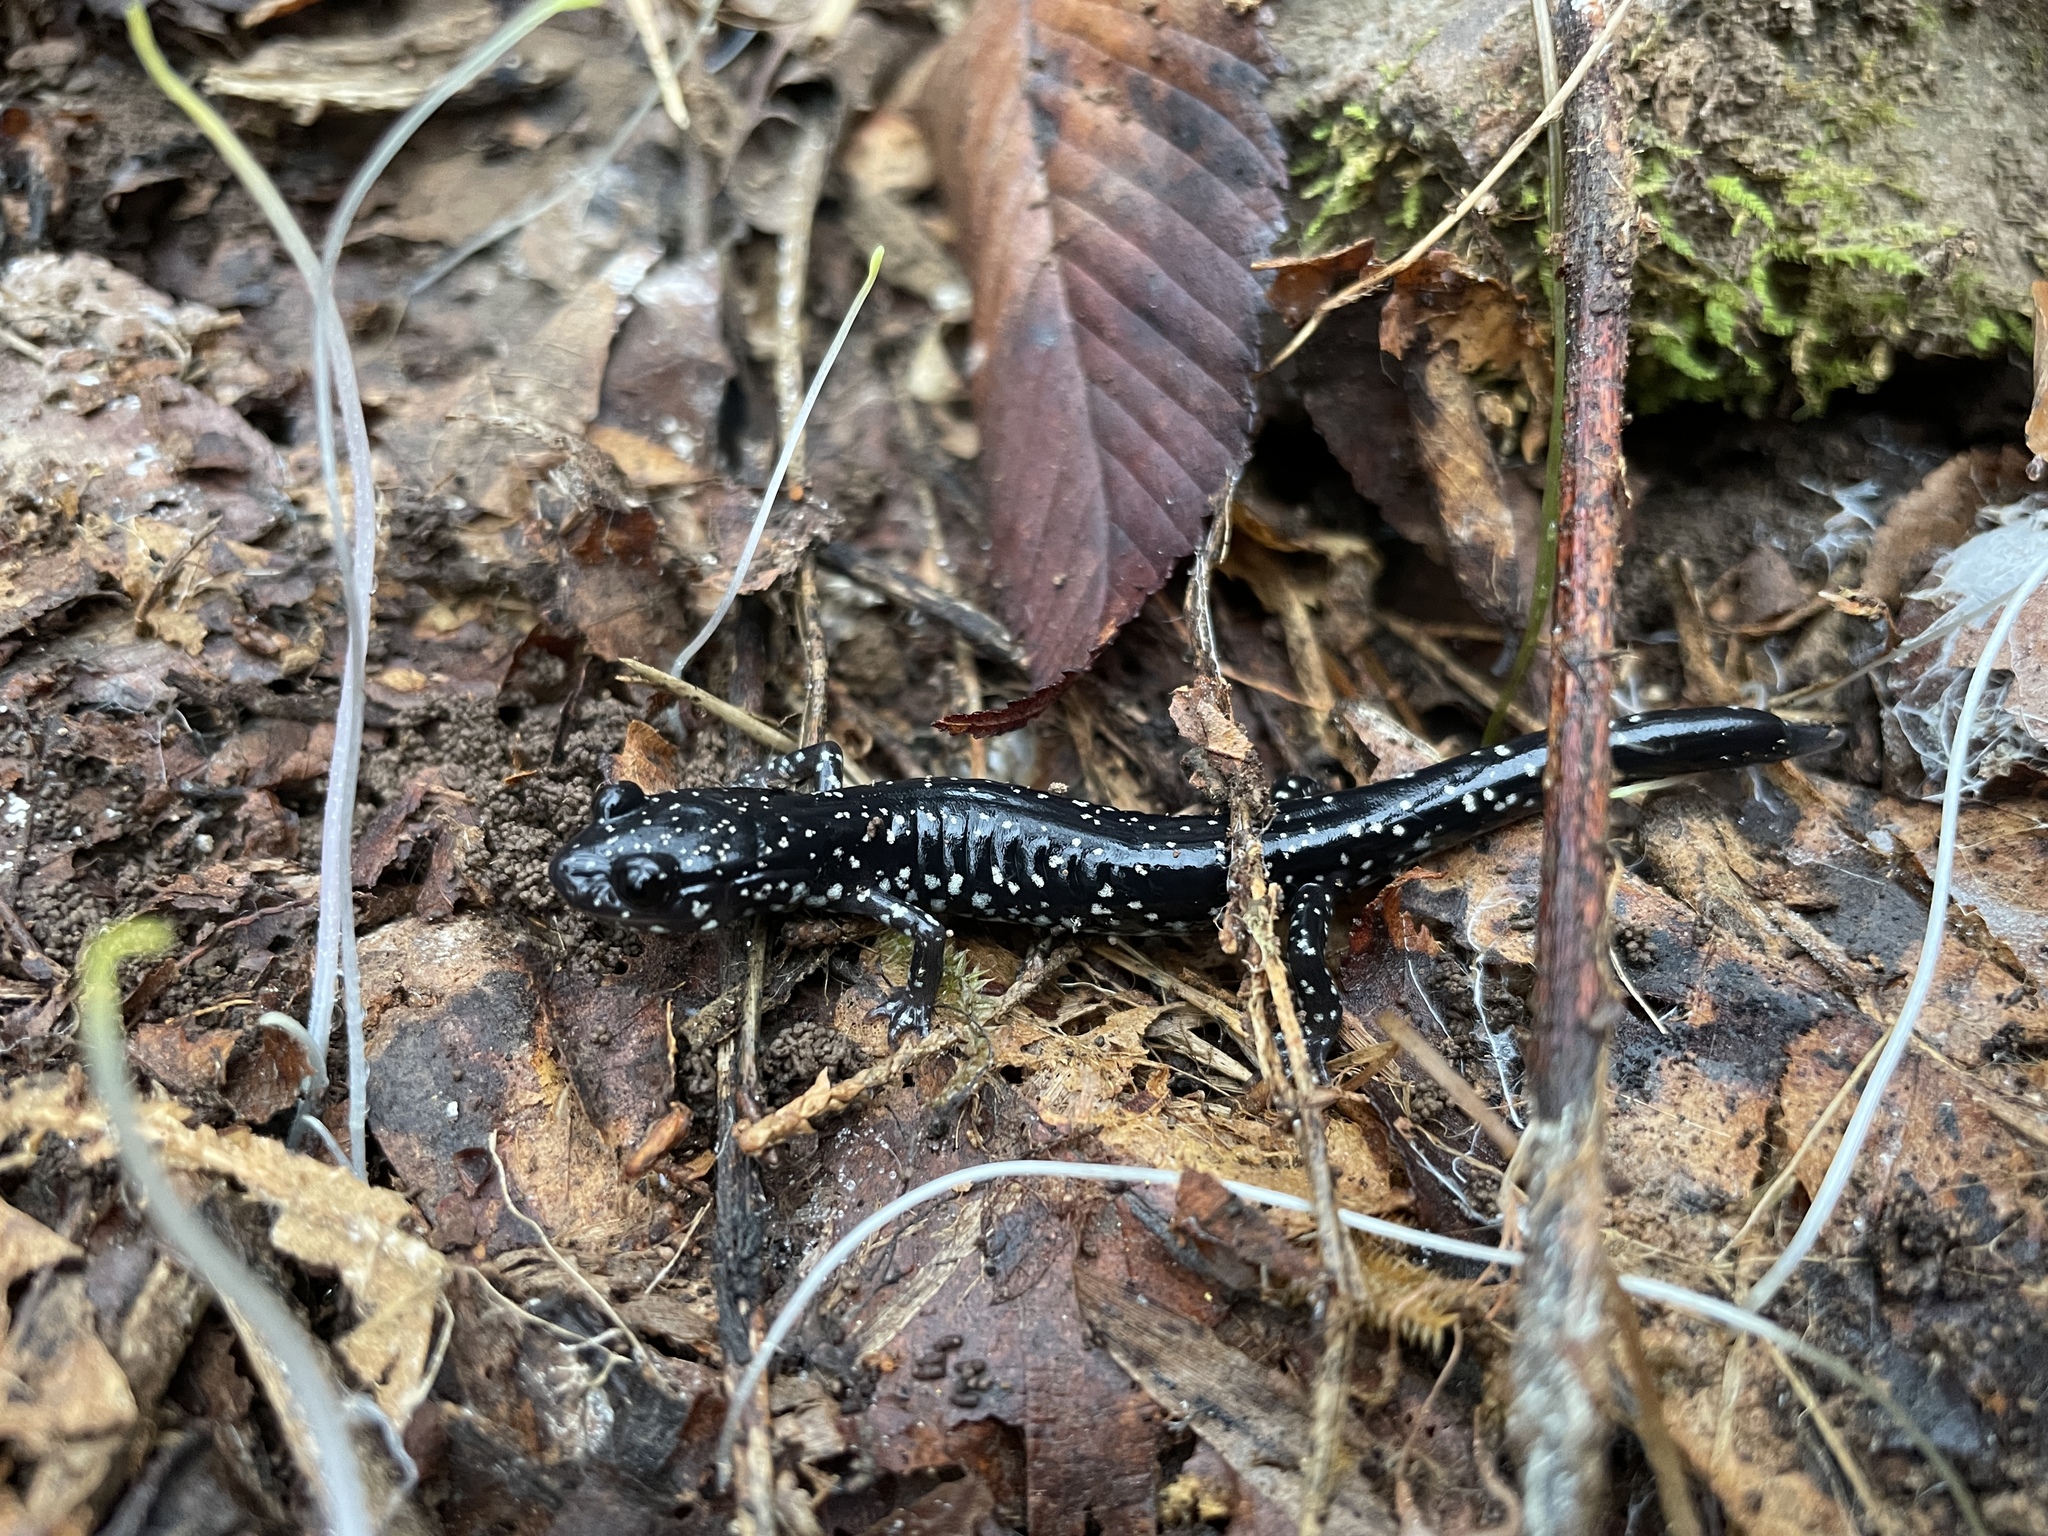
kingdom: Animalia
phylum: Chordata
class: Amphibia
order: Caudata
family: Plethodontidae
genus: Plethodon
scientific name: Plethodon sequoyah
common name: Sequoyah slimy salamander
